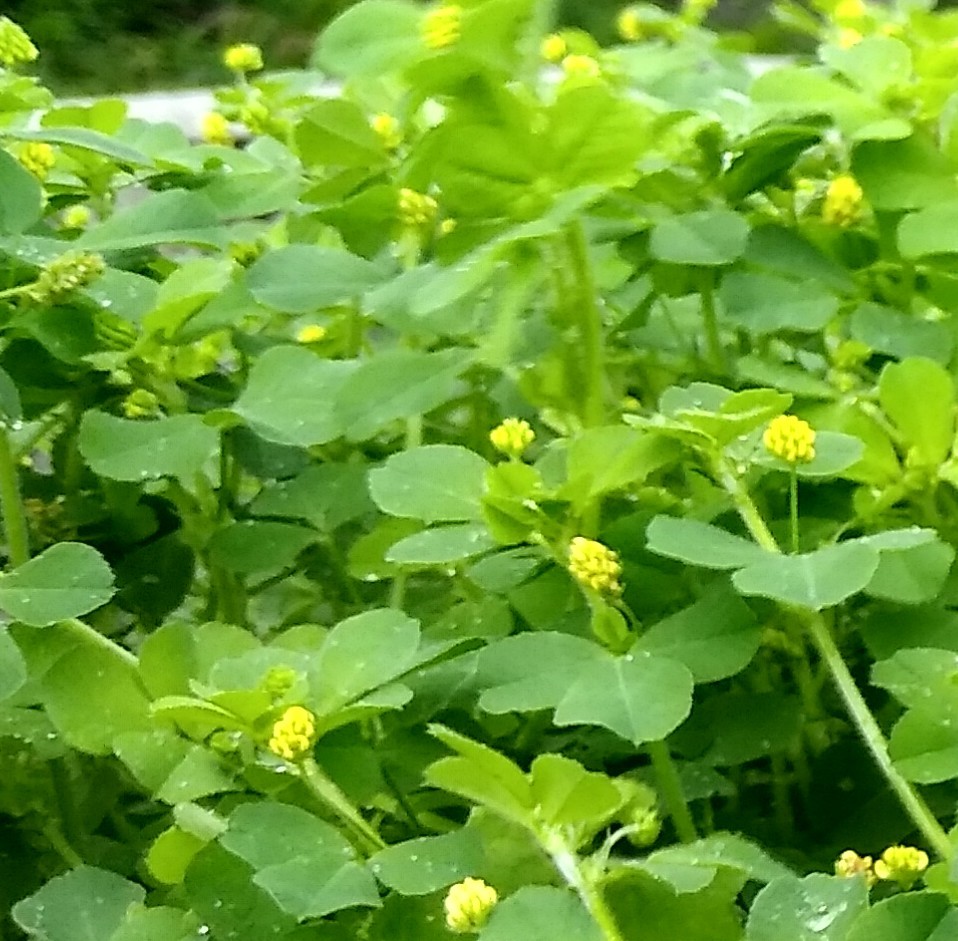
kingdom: Plantae
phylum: Tracheophyta
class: Magnoliopsida
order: Fabales
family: Fabaceae
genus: Medicago
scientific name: Medicago lupulina
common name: Black medick
